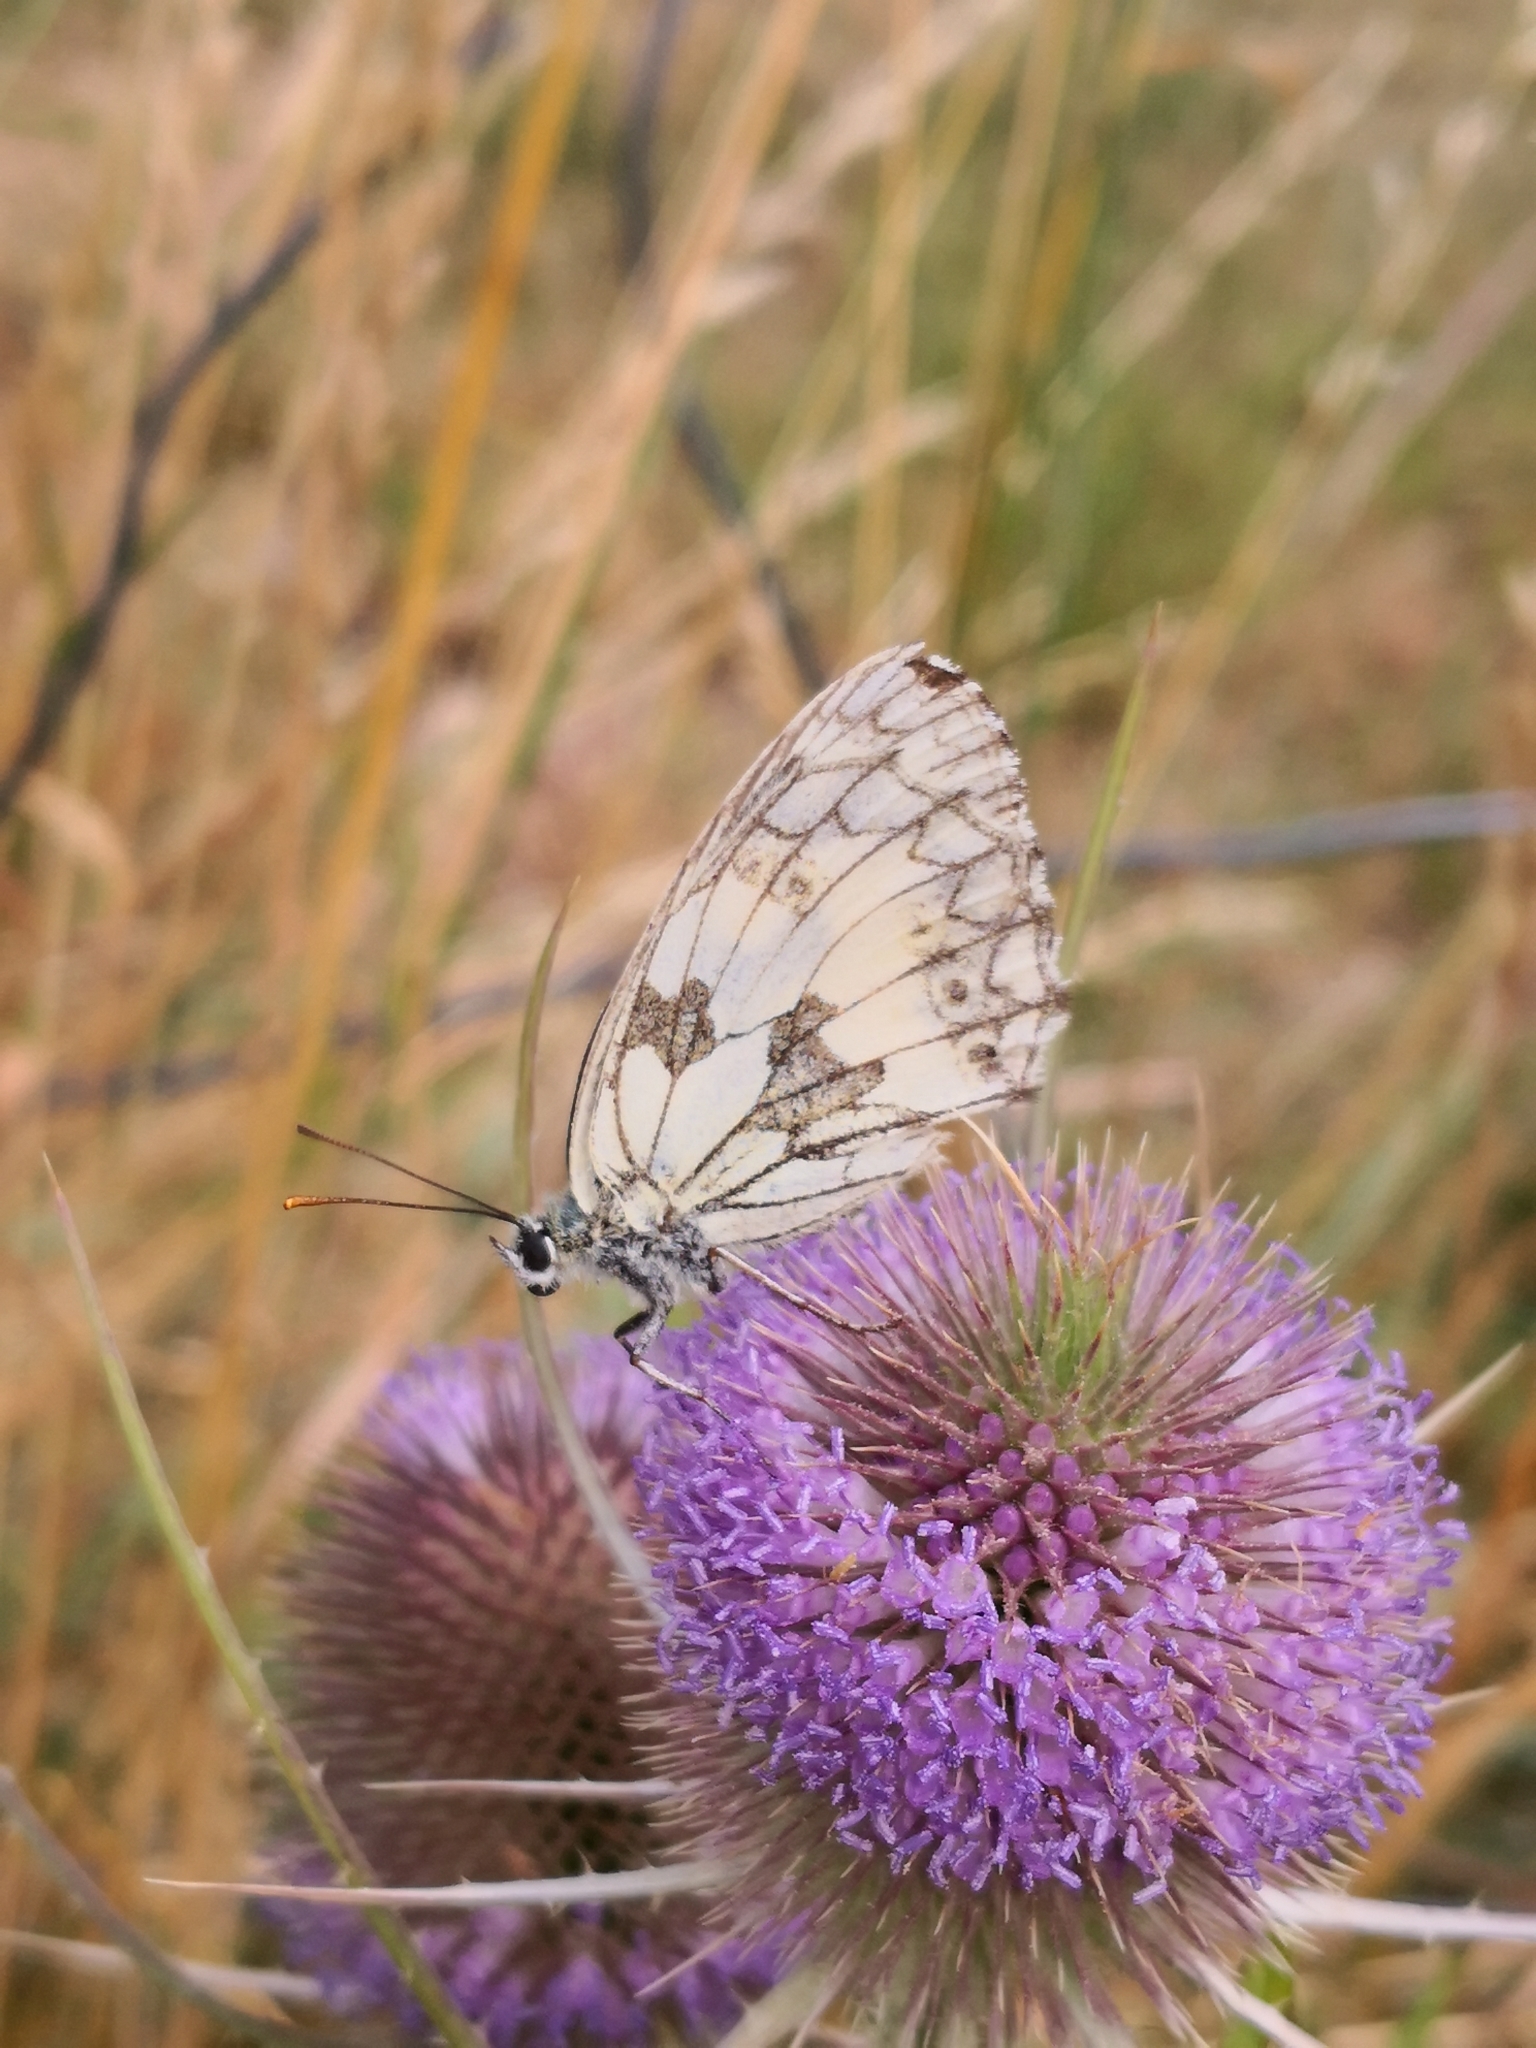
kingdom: Animalia
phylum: Arthropoda
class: Insecta
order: Lepidoptera
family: Nymphalidae
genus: Melanargia
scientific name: Melanargia galathea
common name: Marbled white
